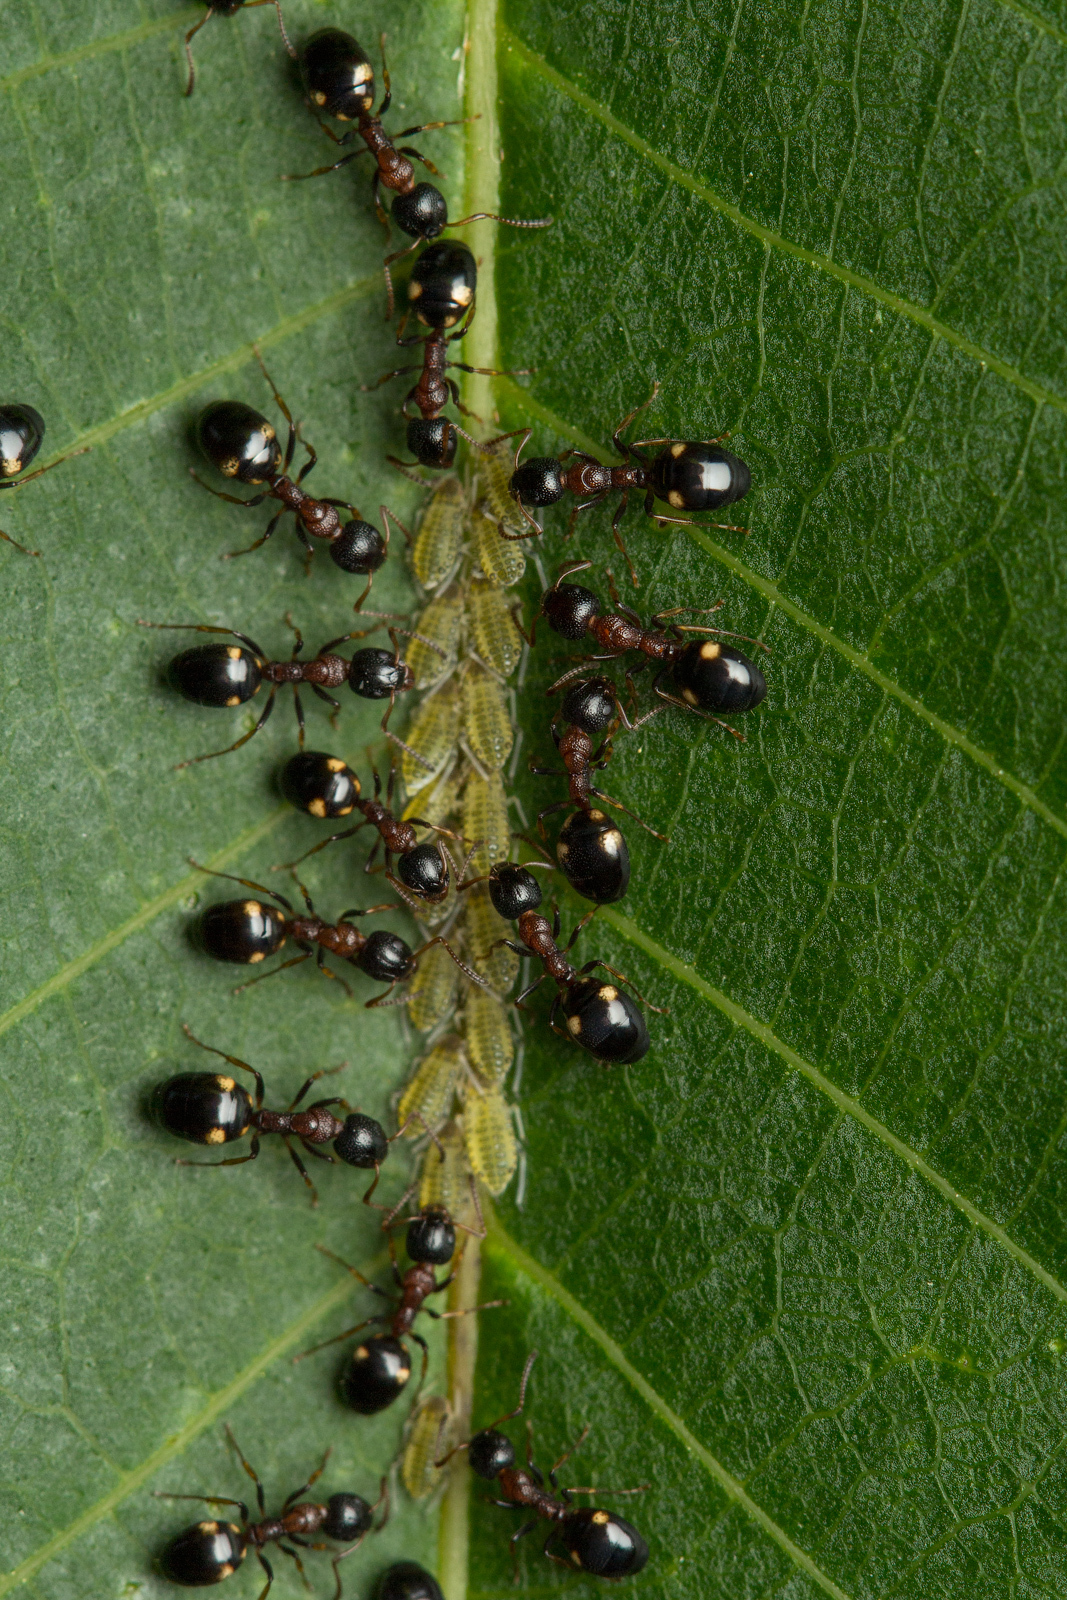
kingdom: Animalia
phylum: Arthropoda
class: Insecta
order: Hymenoptera
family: Formicidae
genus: Dolichoderus
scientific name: Dolichoderus quadripunctatus
